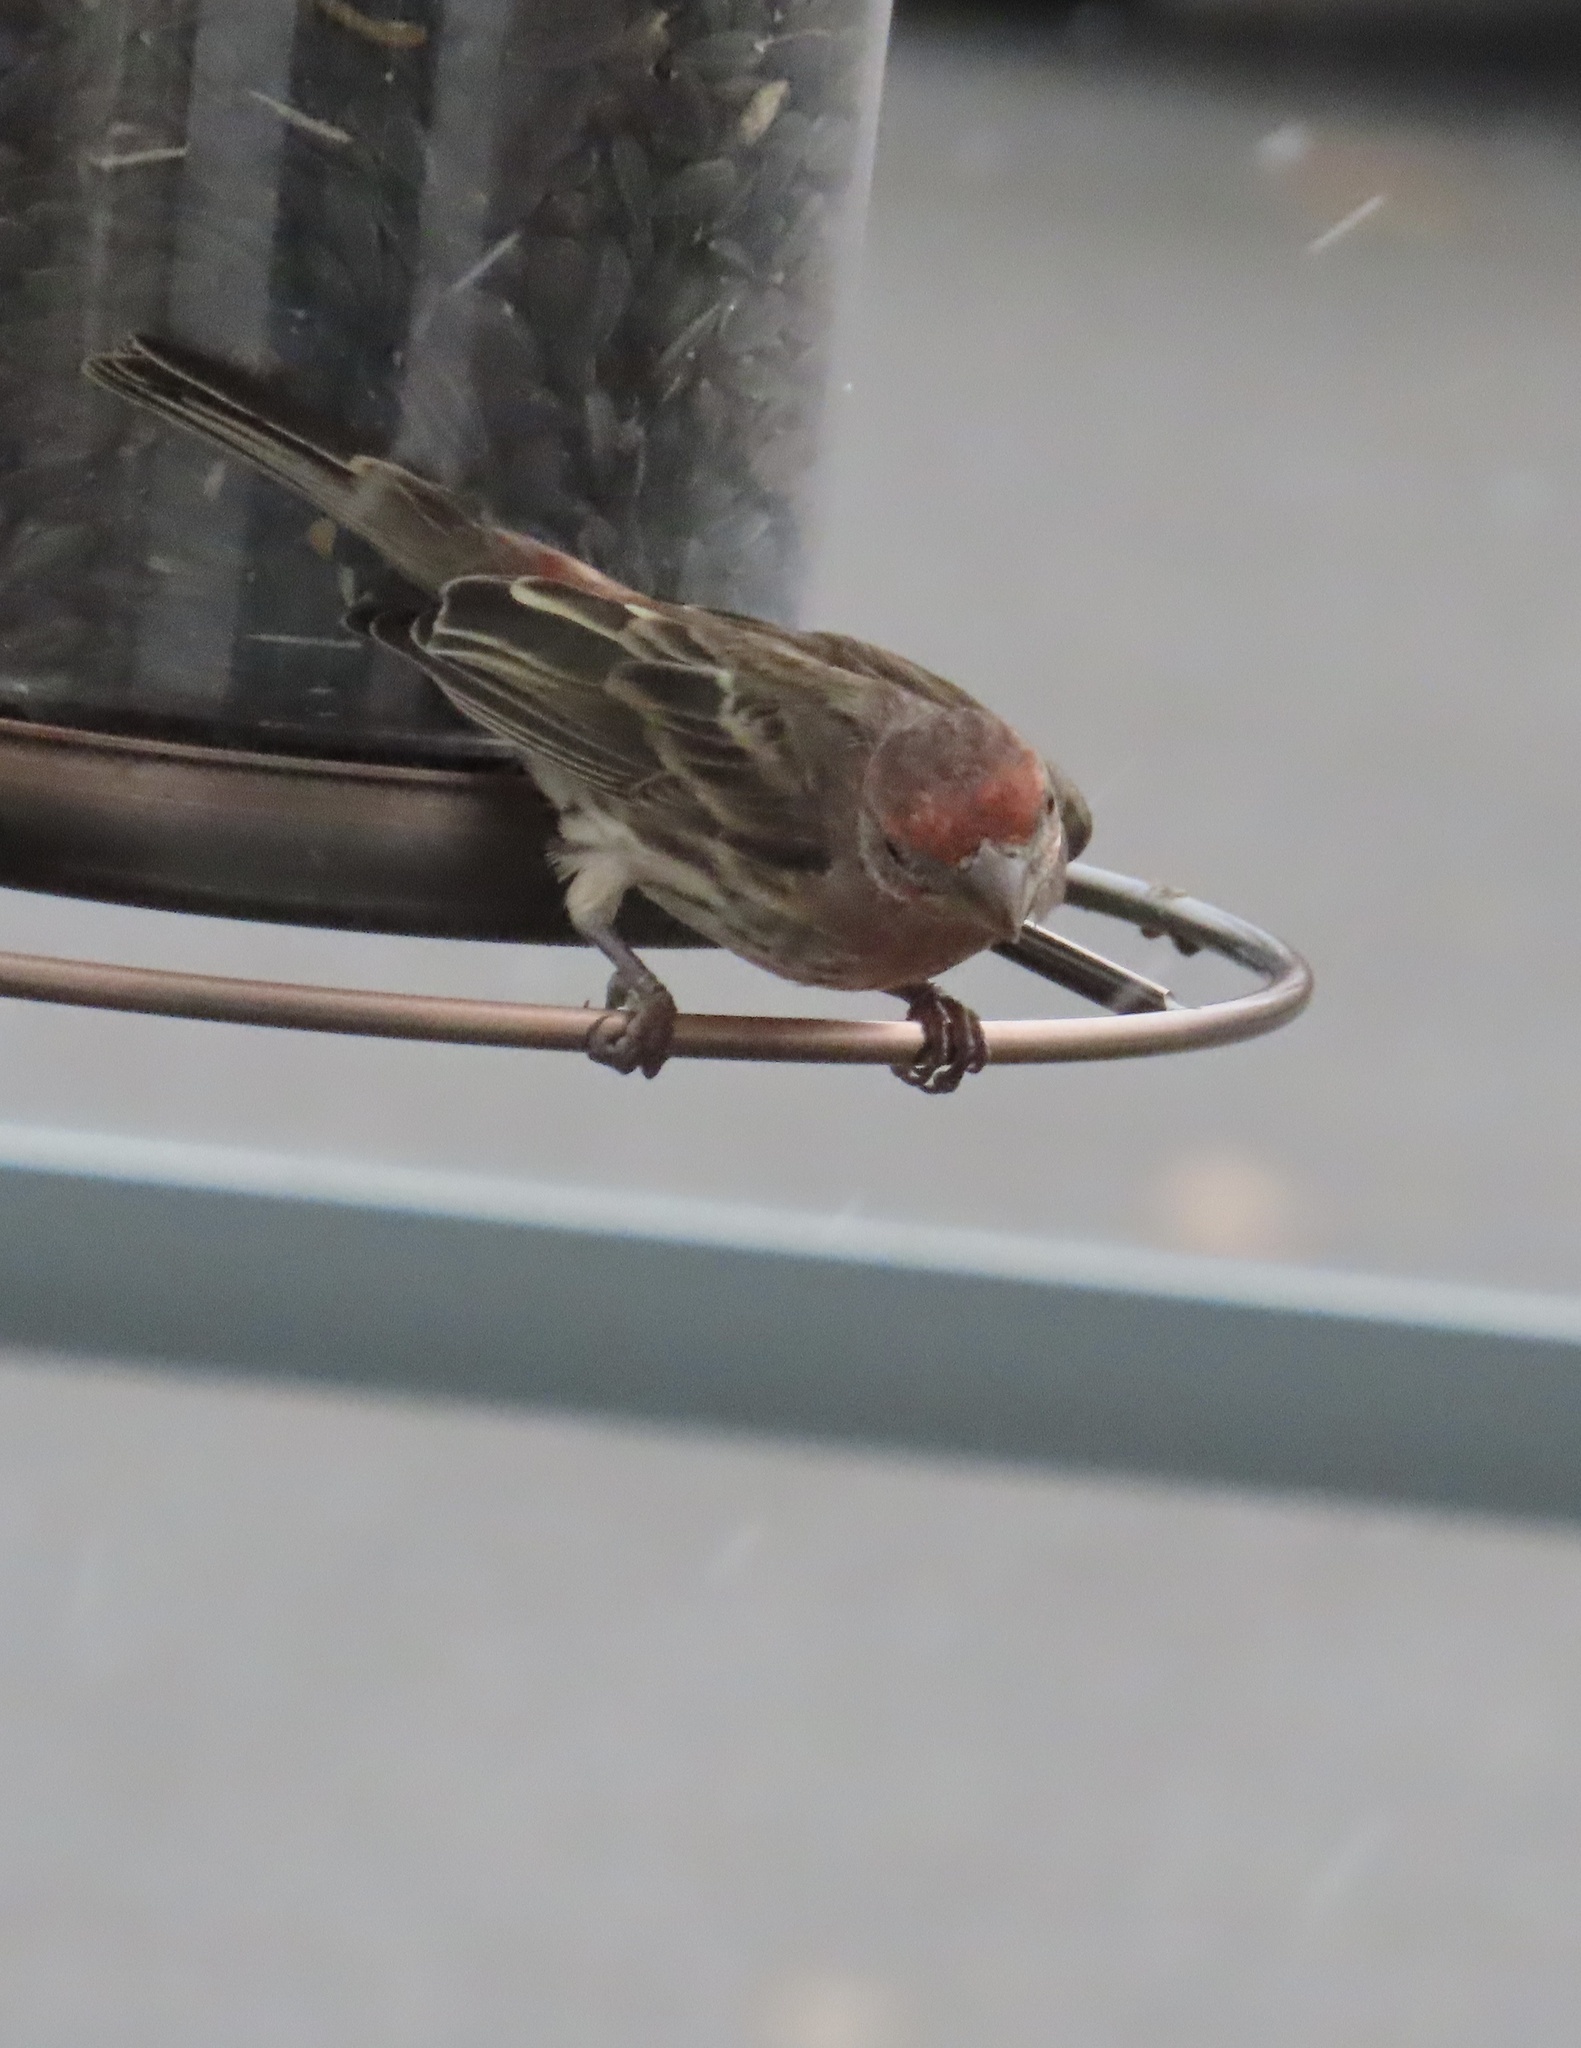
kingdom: Animalia
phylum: Chordata
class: Aves
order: Passeriformes
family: Fringillidae
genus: Haemorhous
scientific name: Haemorhous mexicanus
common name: House finch
